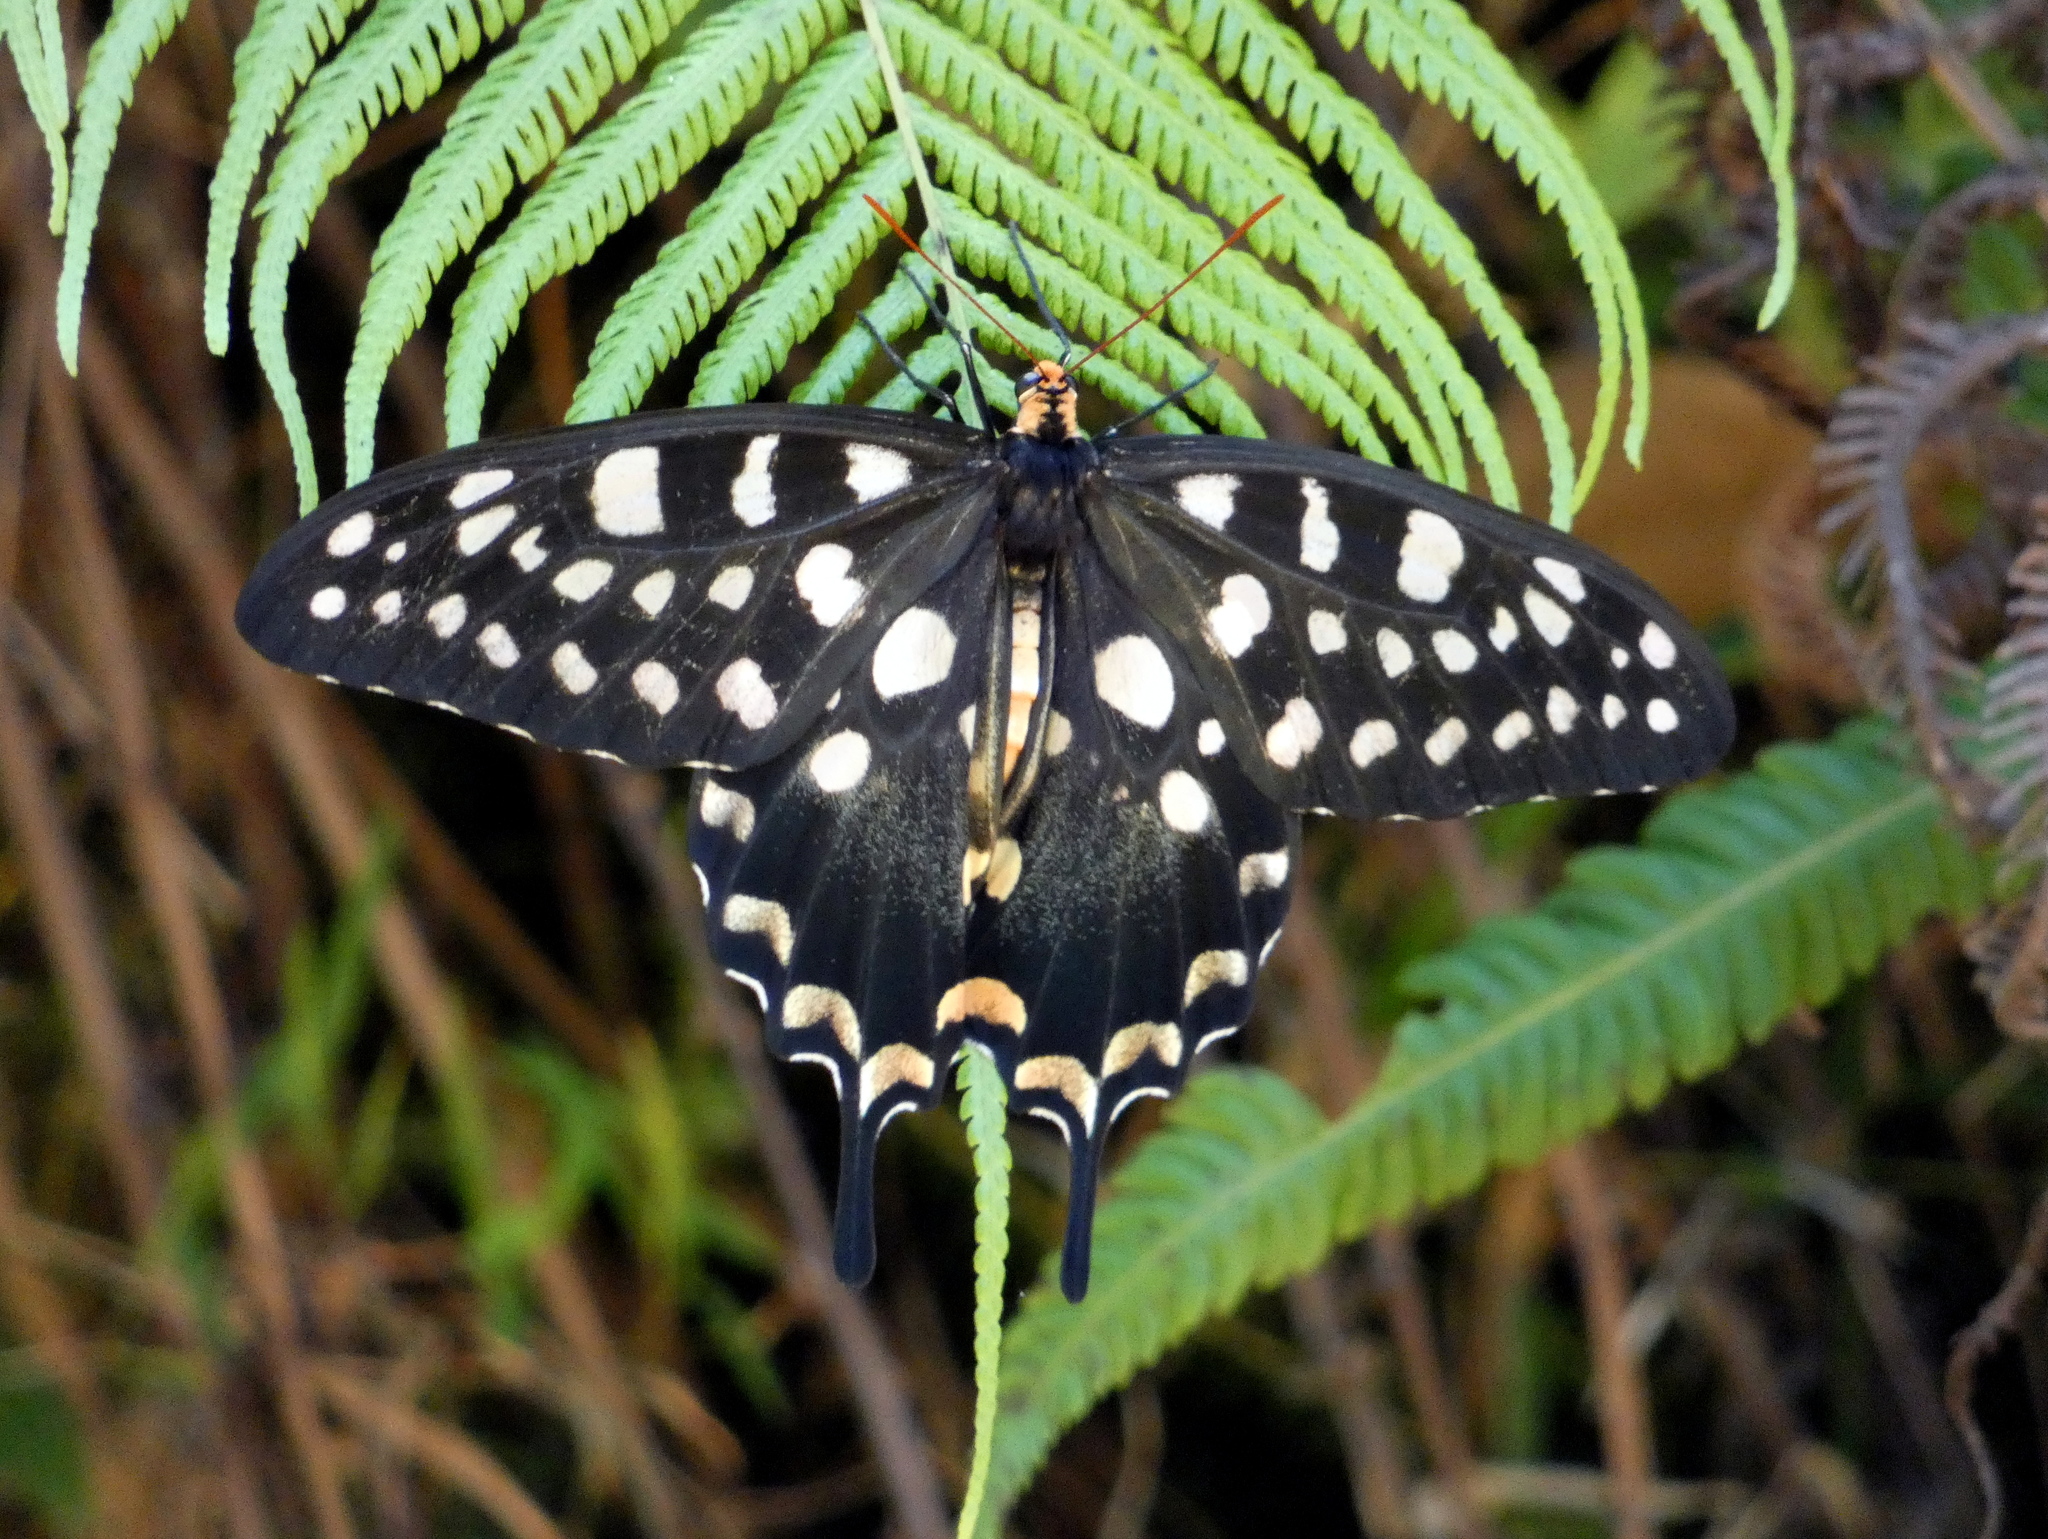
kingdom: Animalia
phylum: Arthropoda
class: Insecta
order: Lepidoptera
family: Papilionidae
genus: Pharmacophagus
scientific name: Pharmacophagus antenor
